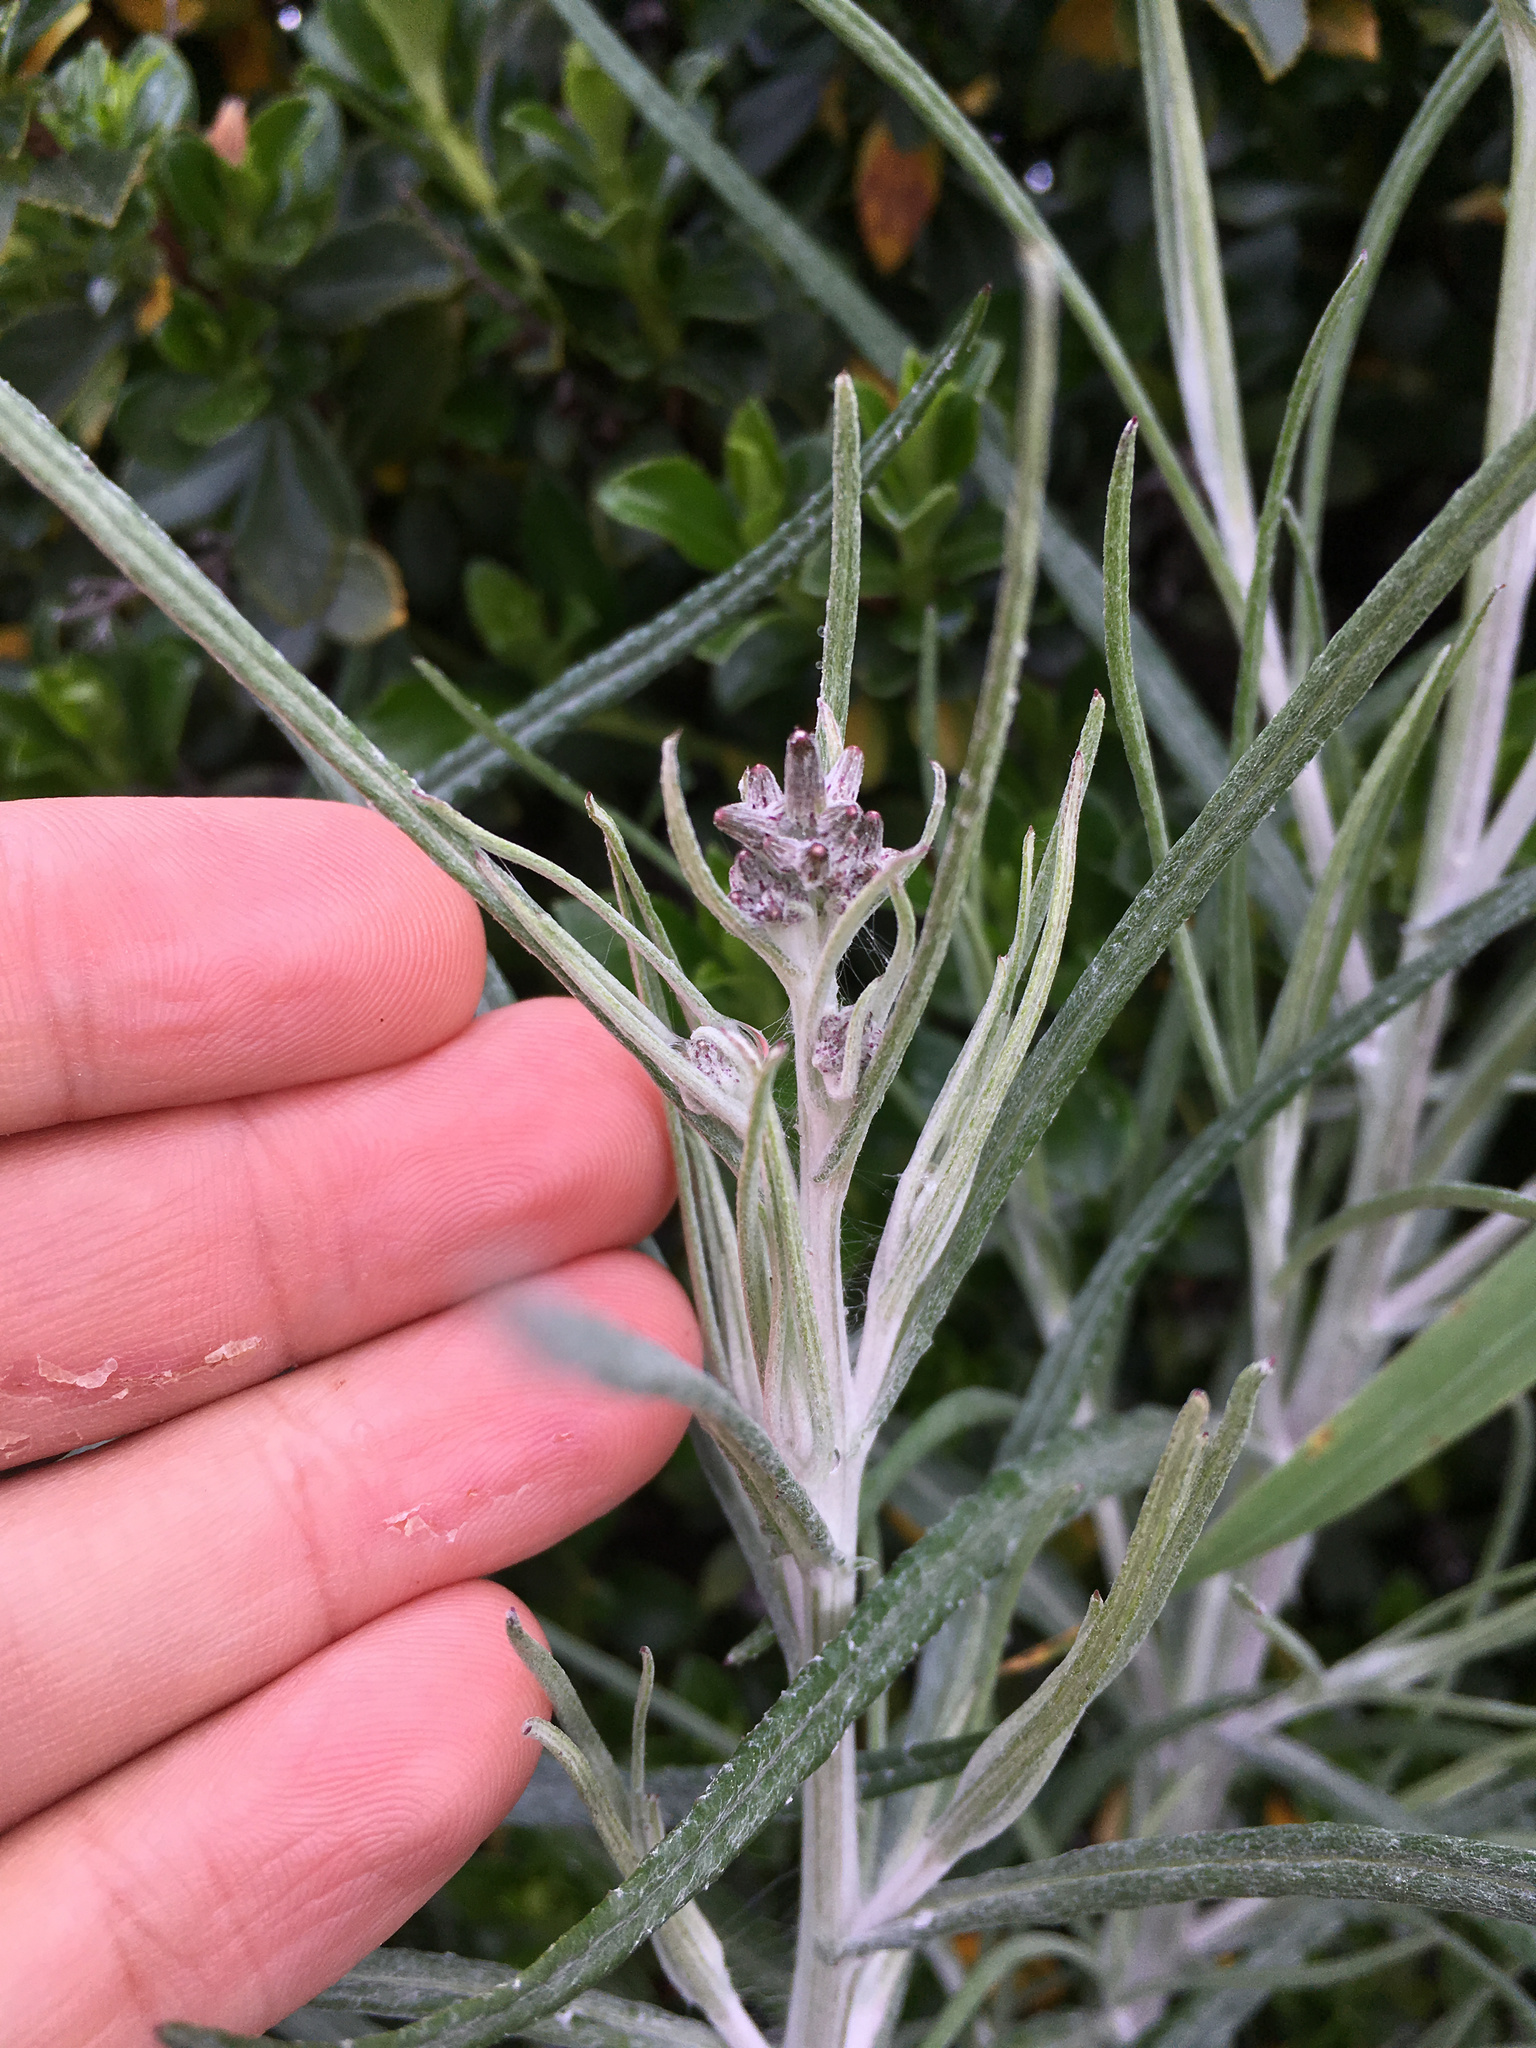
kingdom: Plantae
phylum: Tracheophyta
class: Magnoliopsida
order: Asterales
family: Asteraceae
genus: Senecio
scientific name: Senecio quadridentatus
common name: Cotton fireweed
